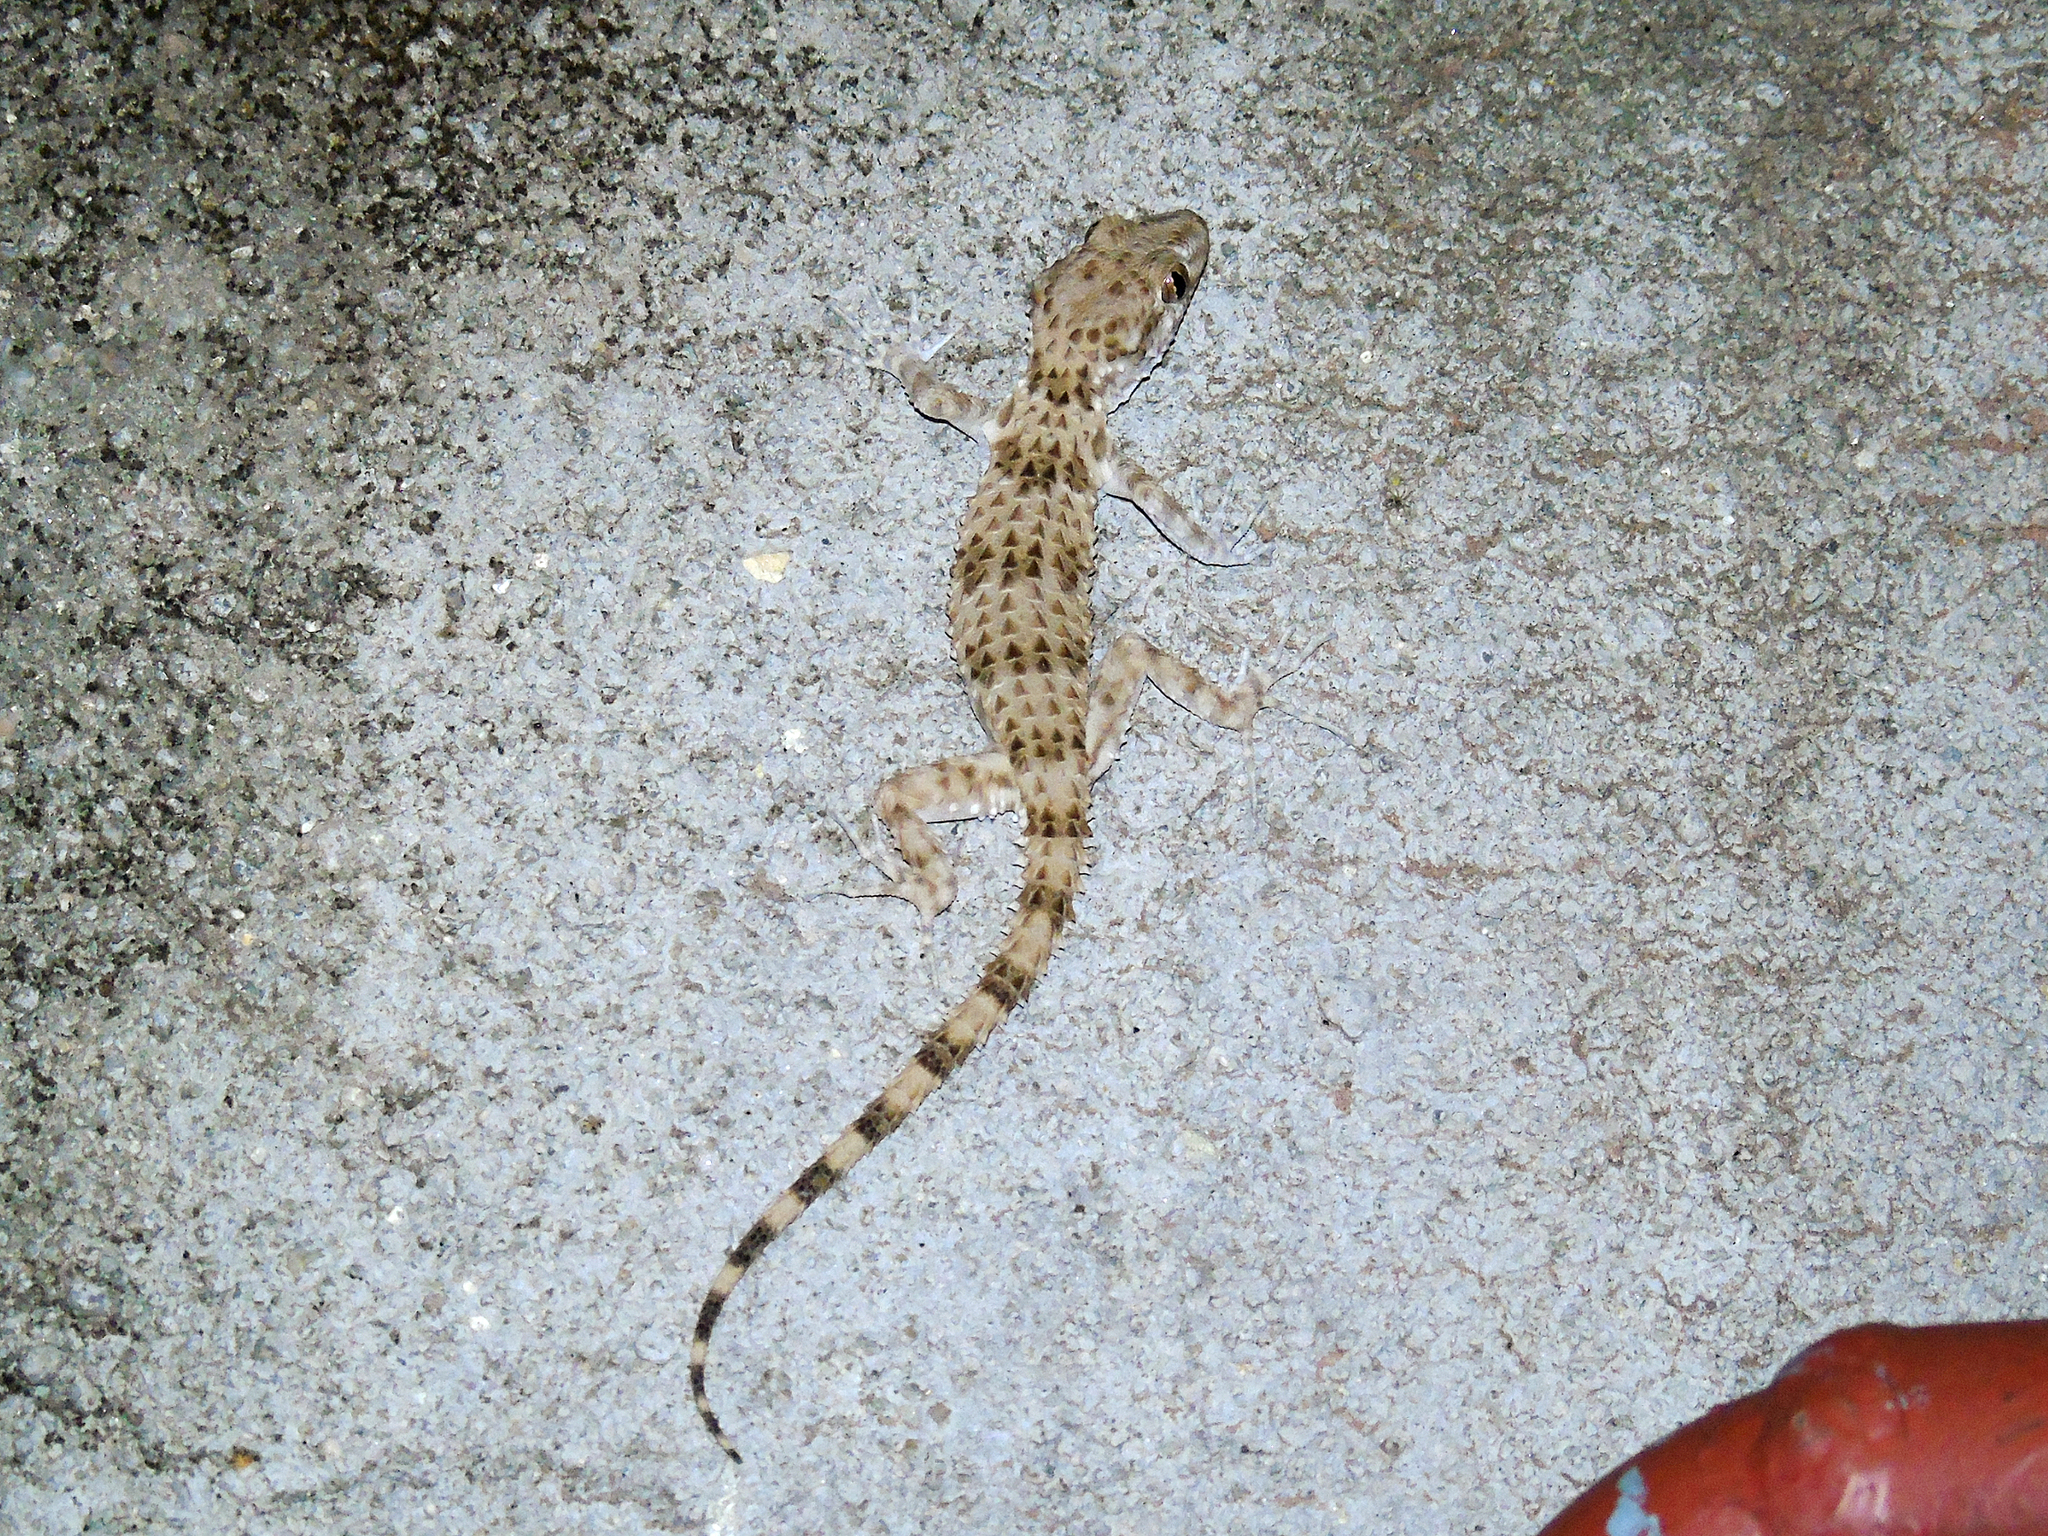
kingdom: Animalia
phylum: Chordata
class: Squamata
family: Gekkonidae
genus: Tenuidactylus
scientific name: Tenuidactylus caspius
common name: Caspian bent-toed gecko
